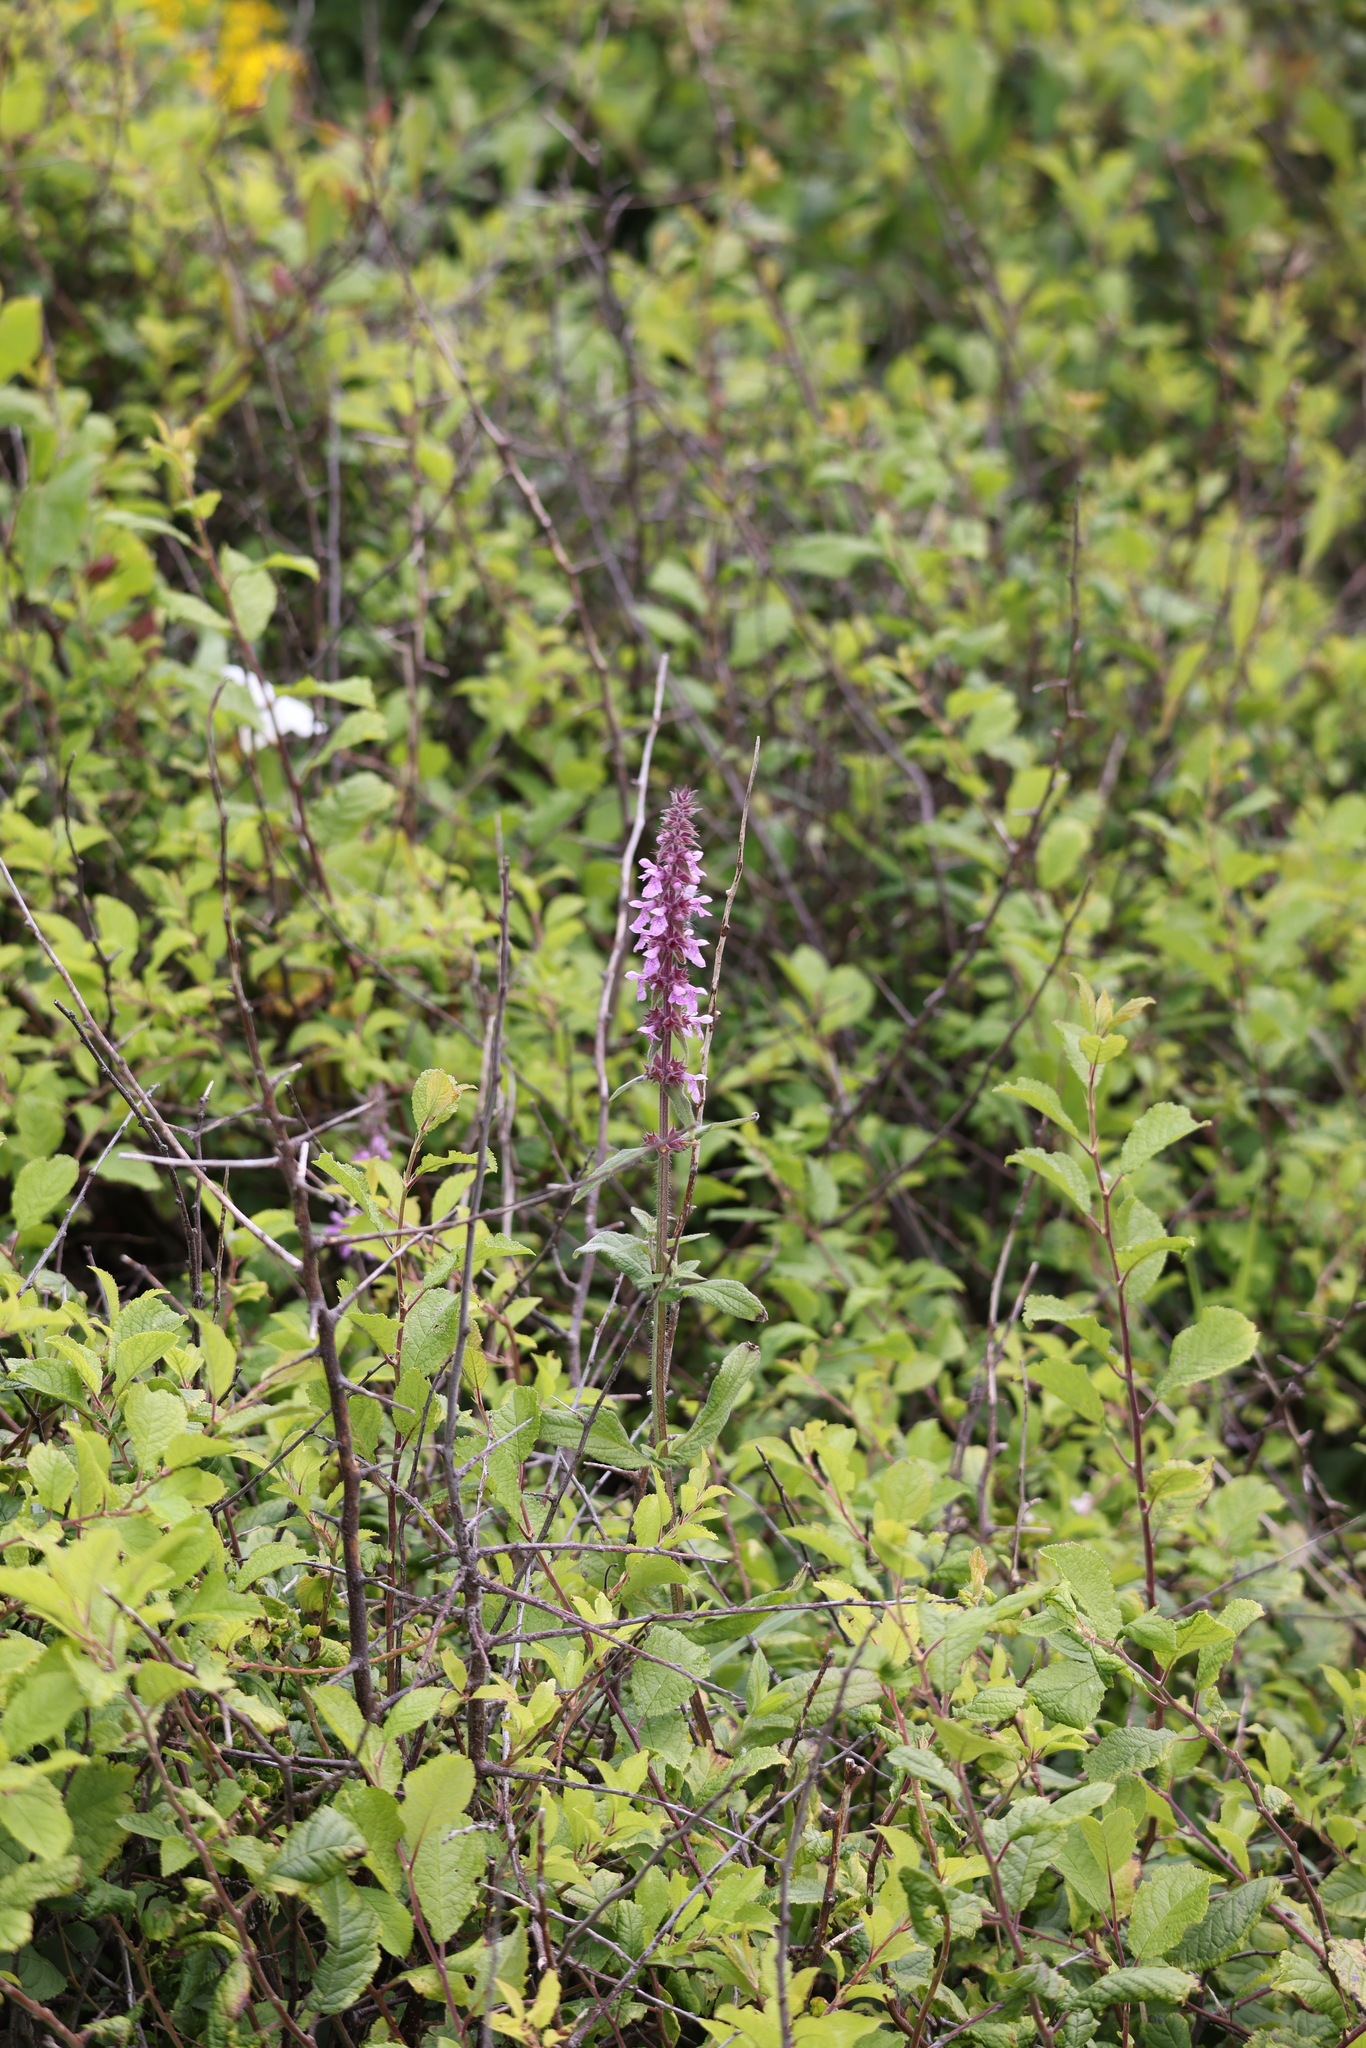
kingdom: Plantae
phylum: Tracheophyta
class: Magnoliopsida
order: Lamiales
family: Lamiaceae
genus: Stachys
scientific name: Stachys palustris
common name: Marsh woundwort
